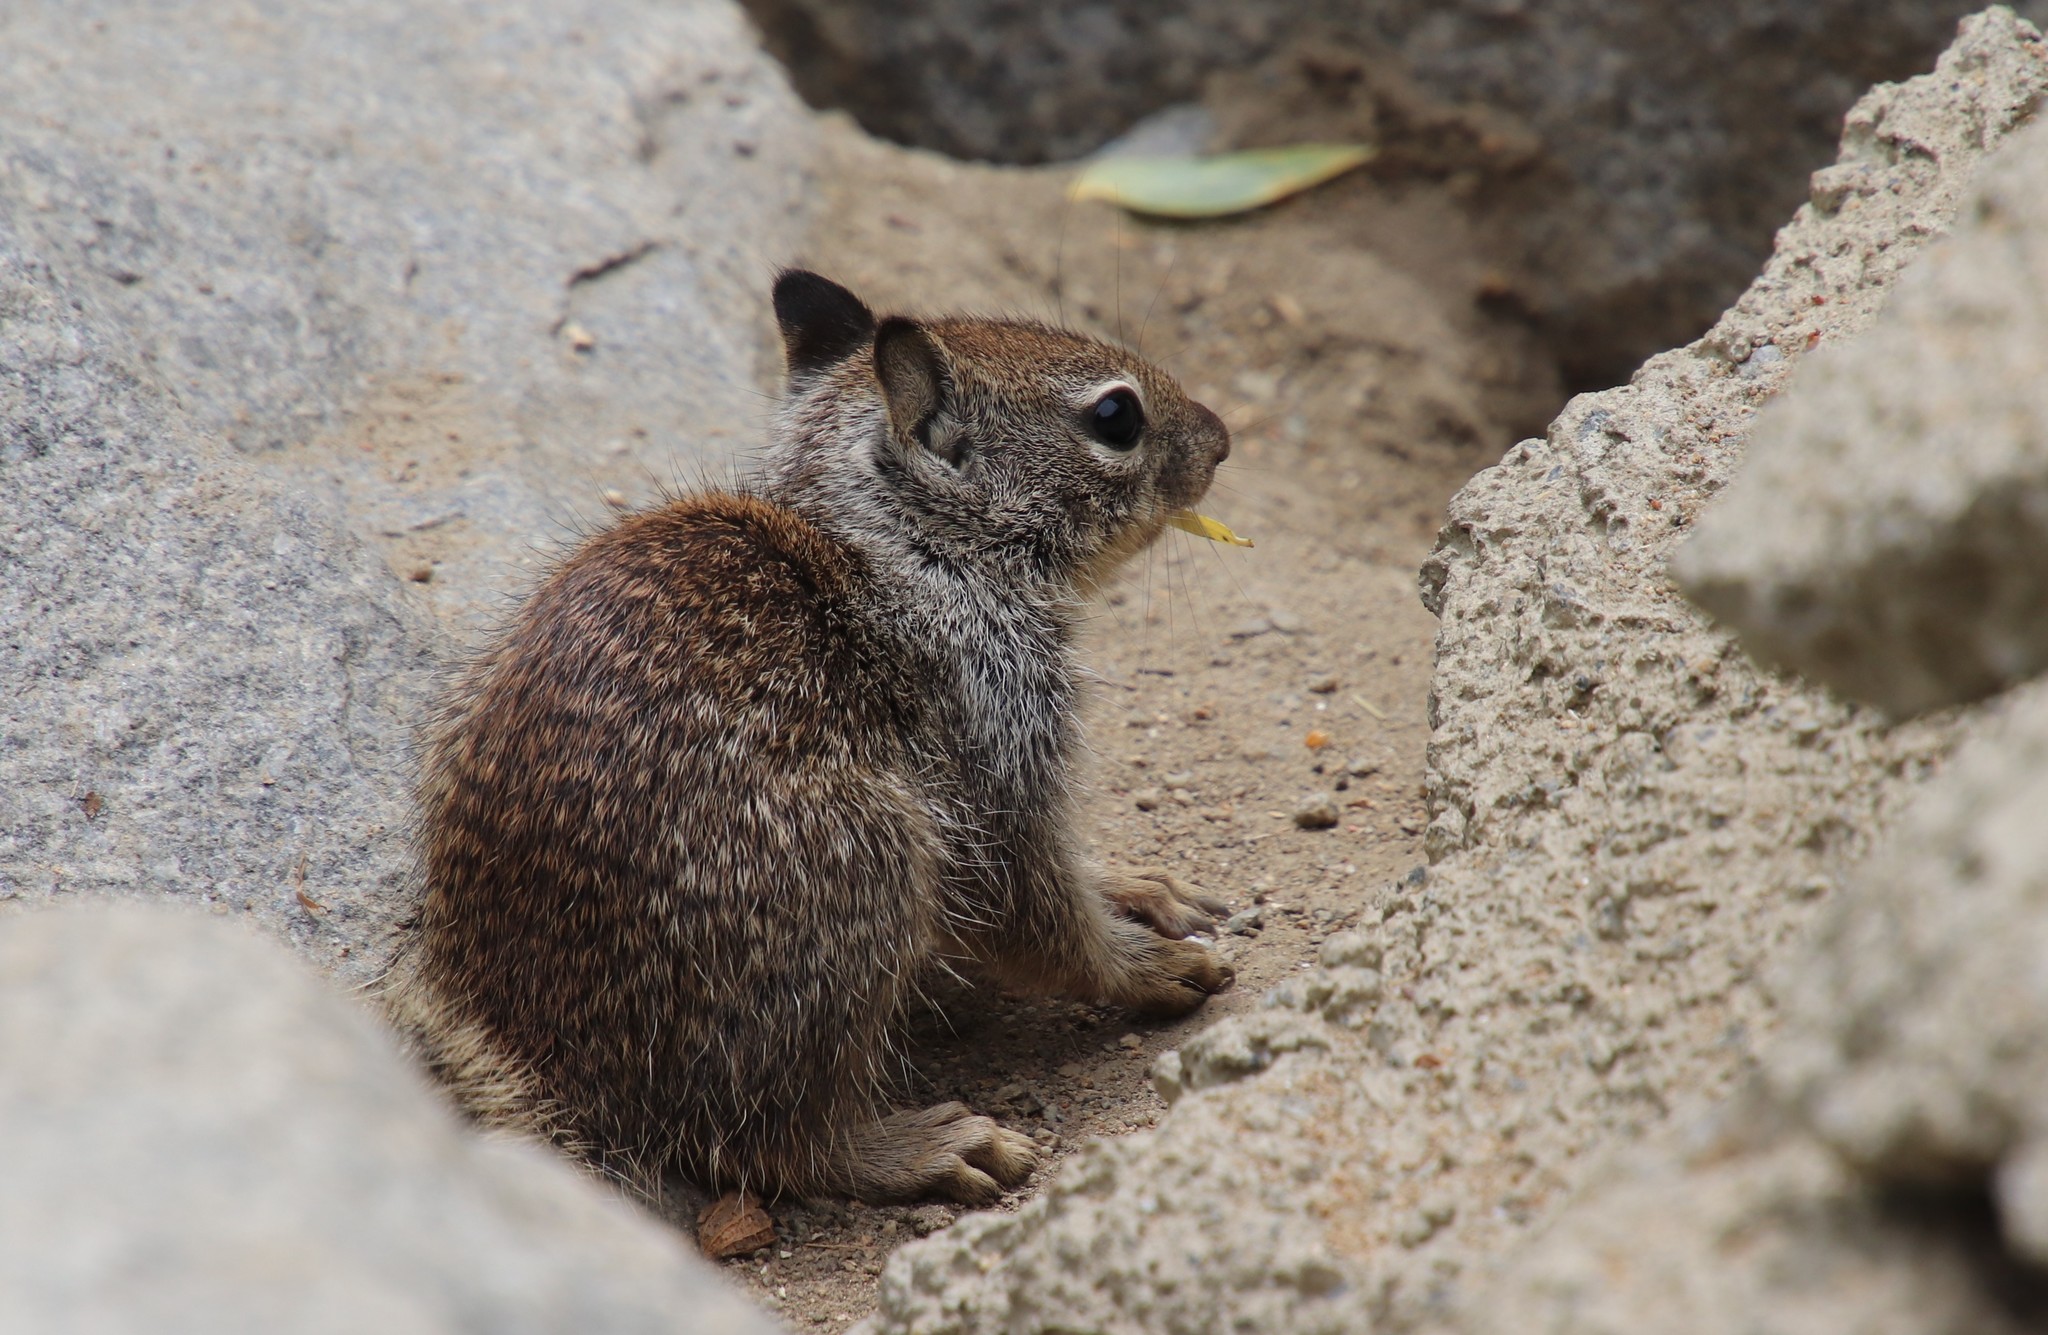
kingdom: Animalia
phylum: Chordata
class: Mammalia
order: Rodentia
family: Sciuridae
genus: Otospermophilus
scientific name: Otospermophilus beecheyi
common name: California ground squirrel
